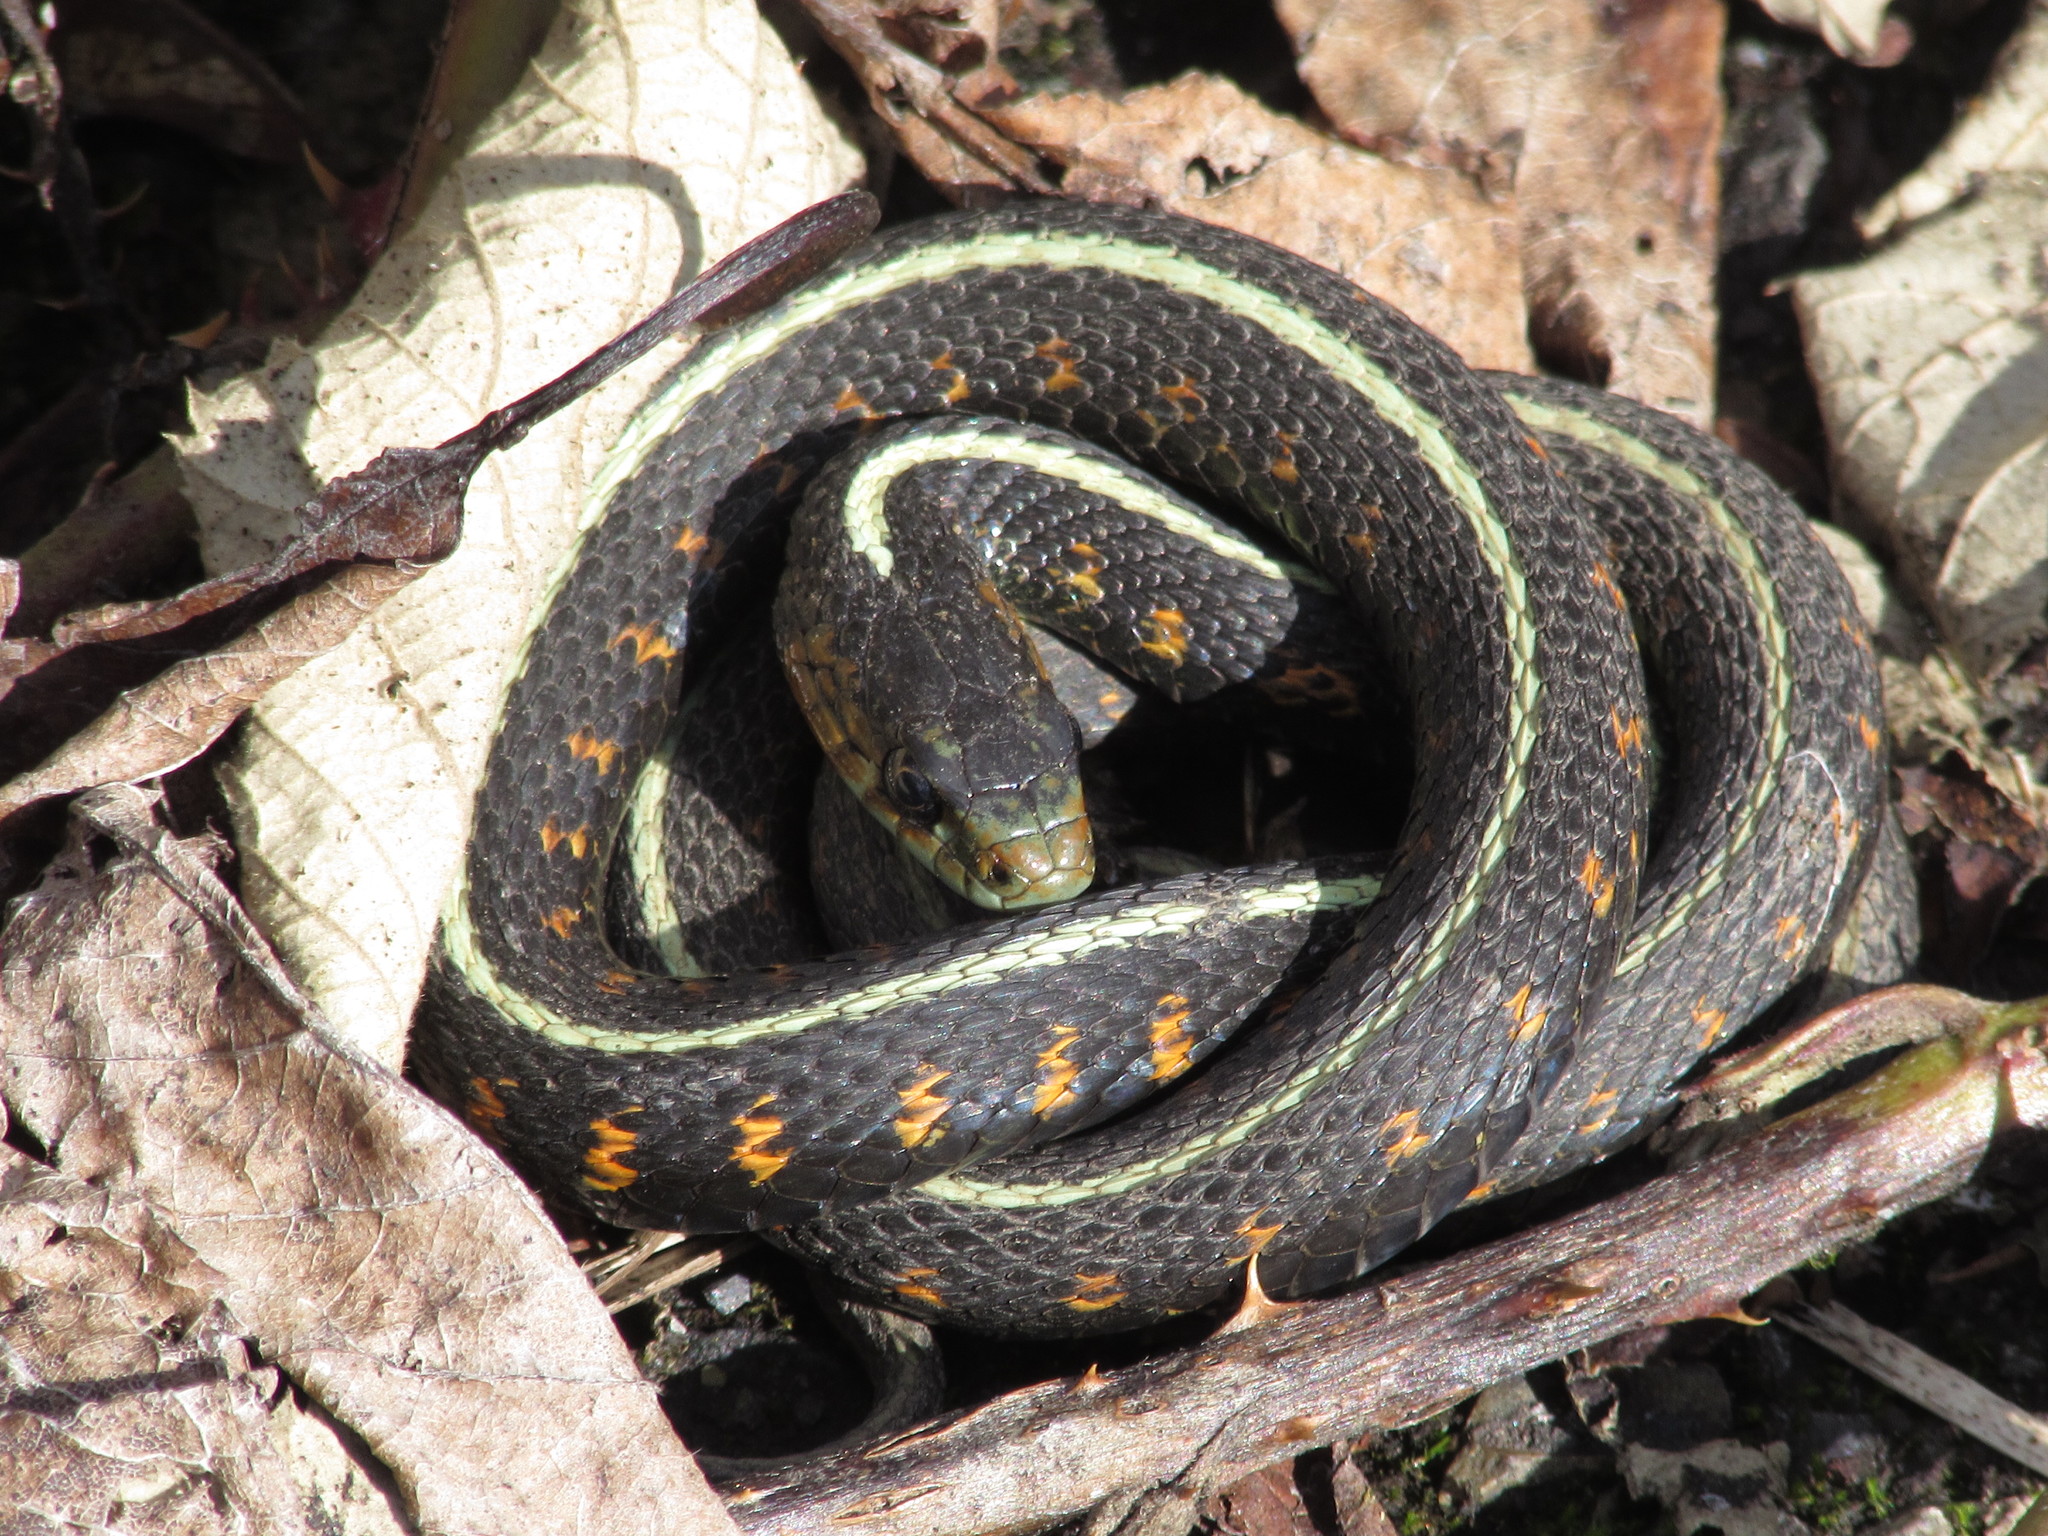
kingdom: Animalia
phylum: Chordata
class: Squamata
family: Colubridae
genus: Thamnophis
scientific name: Thamnophis sirtalis
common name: Common garter snake
